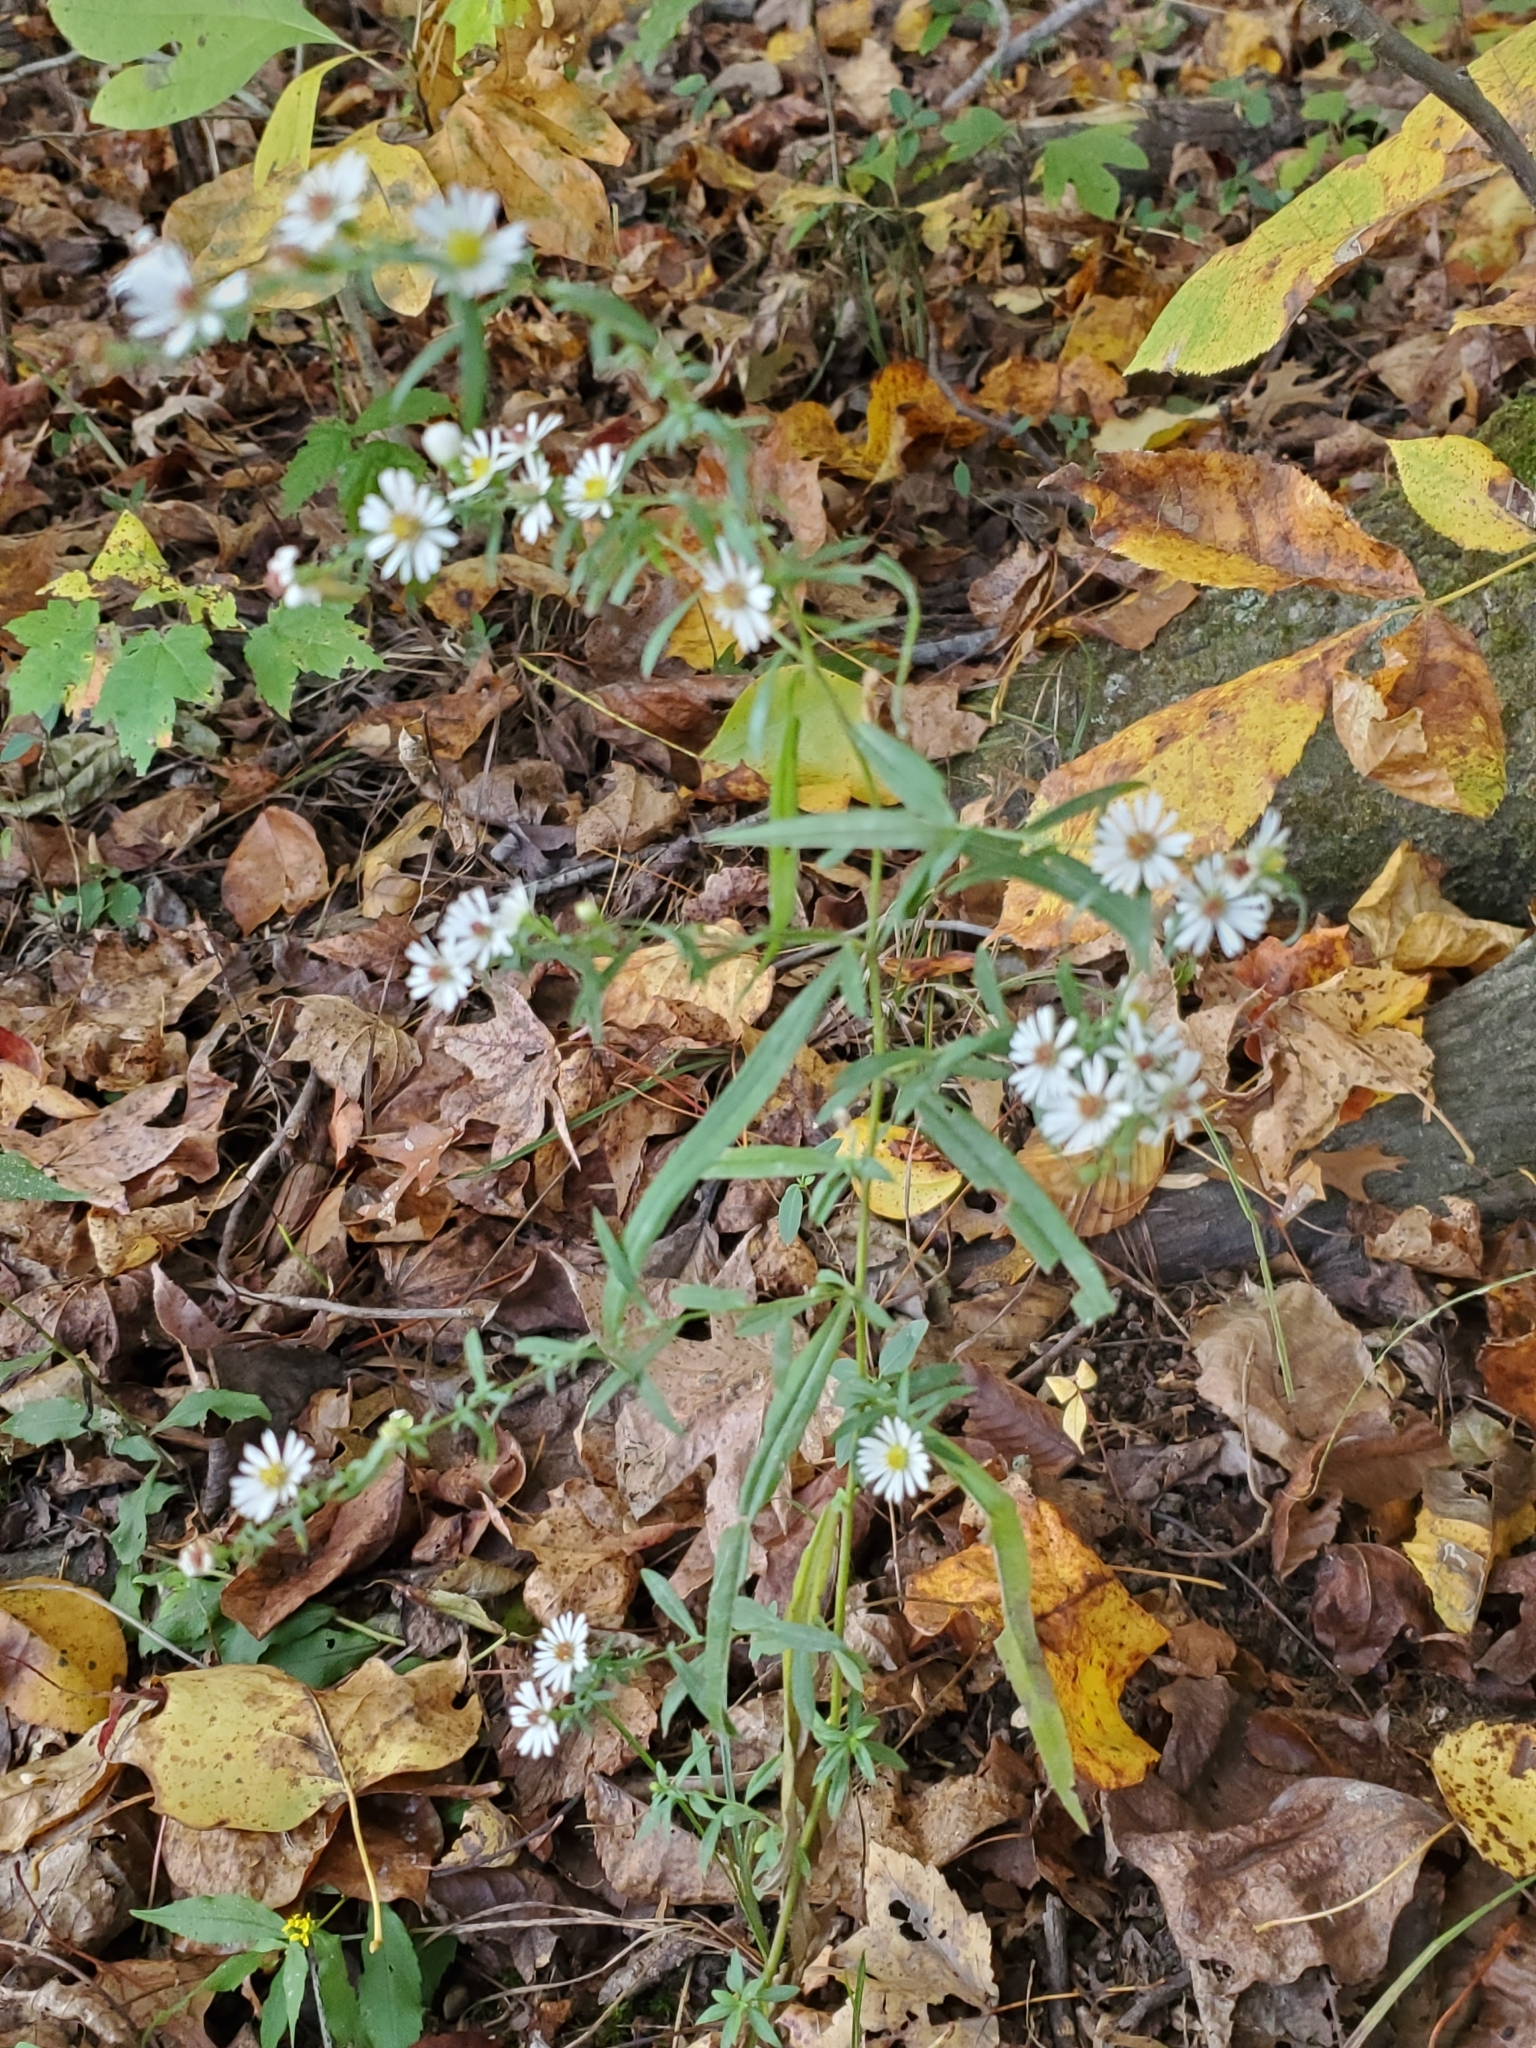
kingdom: Plantae
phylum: Tracheophyta
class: Magnoliopsida
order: Asterales
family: Asteraceae
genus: Symphyotrichum
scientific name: Symphyotrichum lanceolatum
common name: Panicled aster
